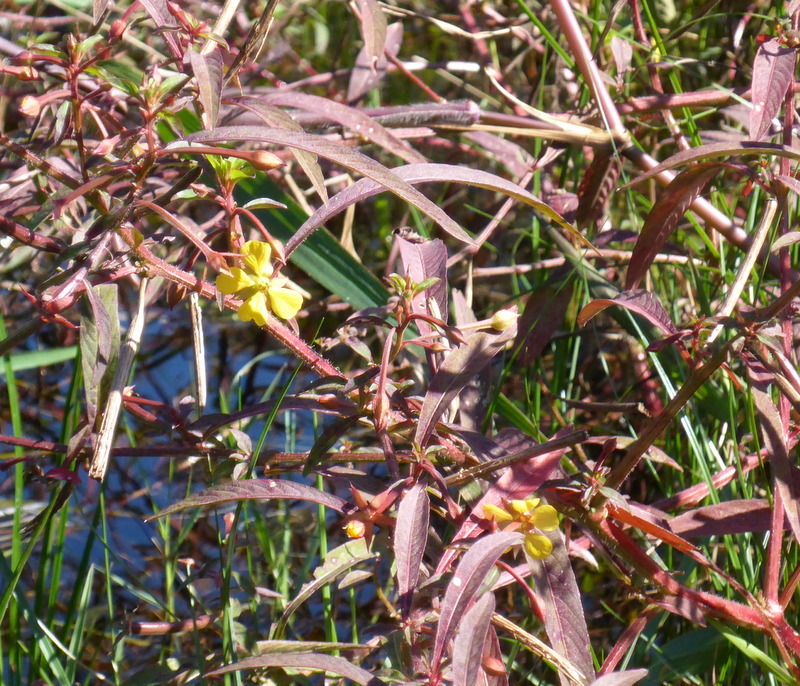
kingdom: Plantae
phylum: Tracheophyta
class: Magnoliopsida
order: Myrtales
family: Onagraceae
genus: Ludwigia
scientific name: Ludwigia leptocarpa
